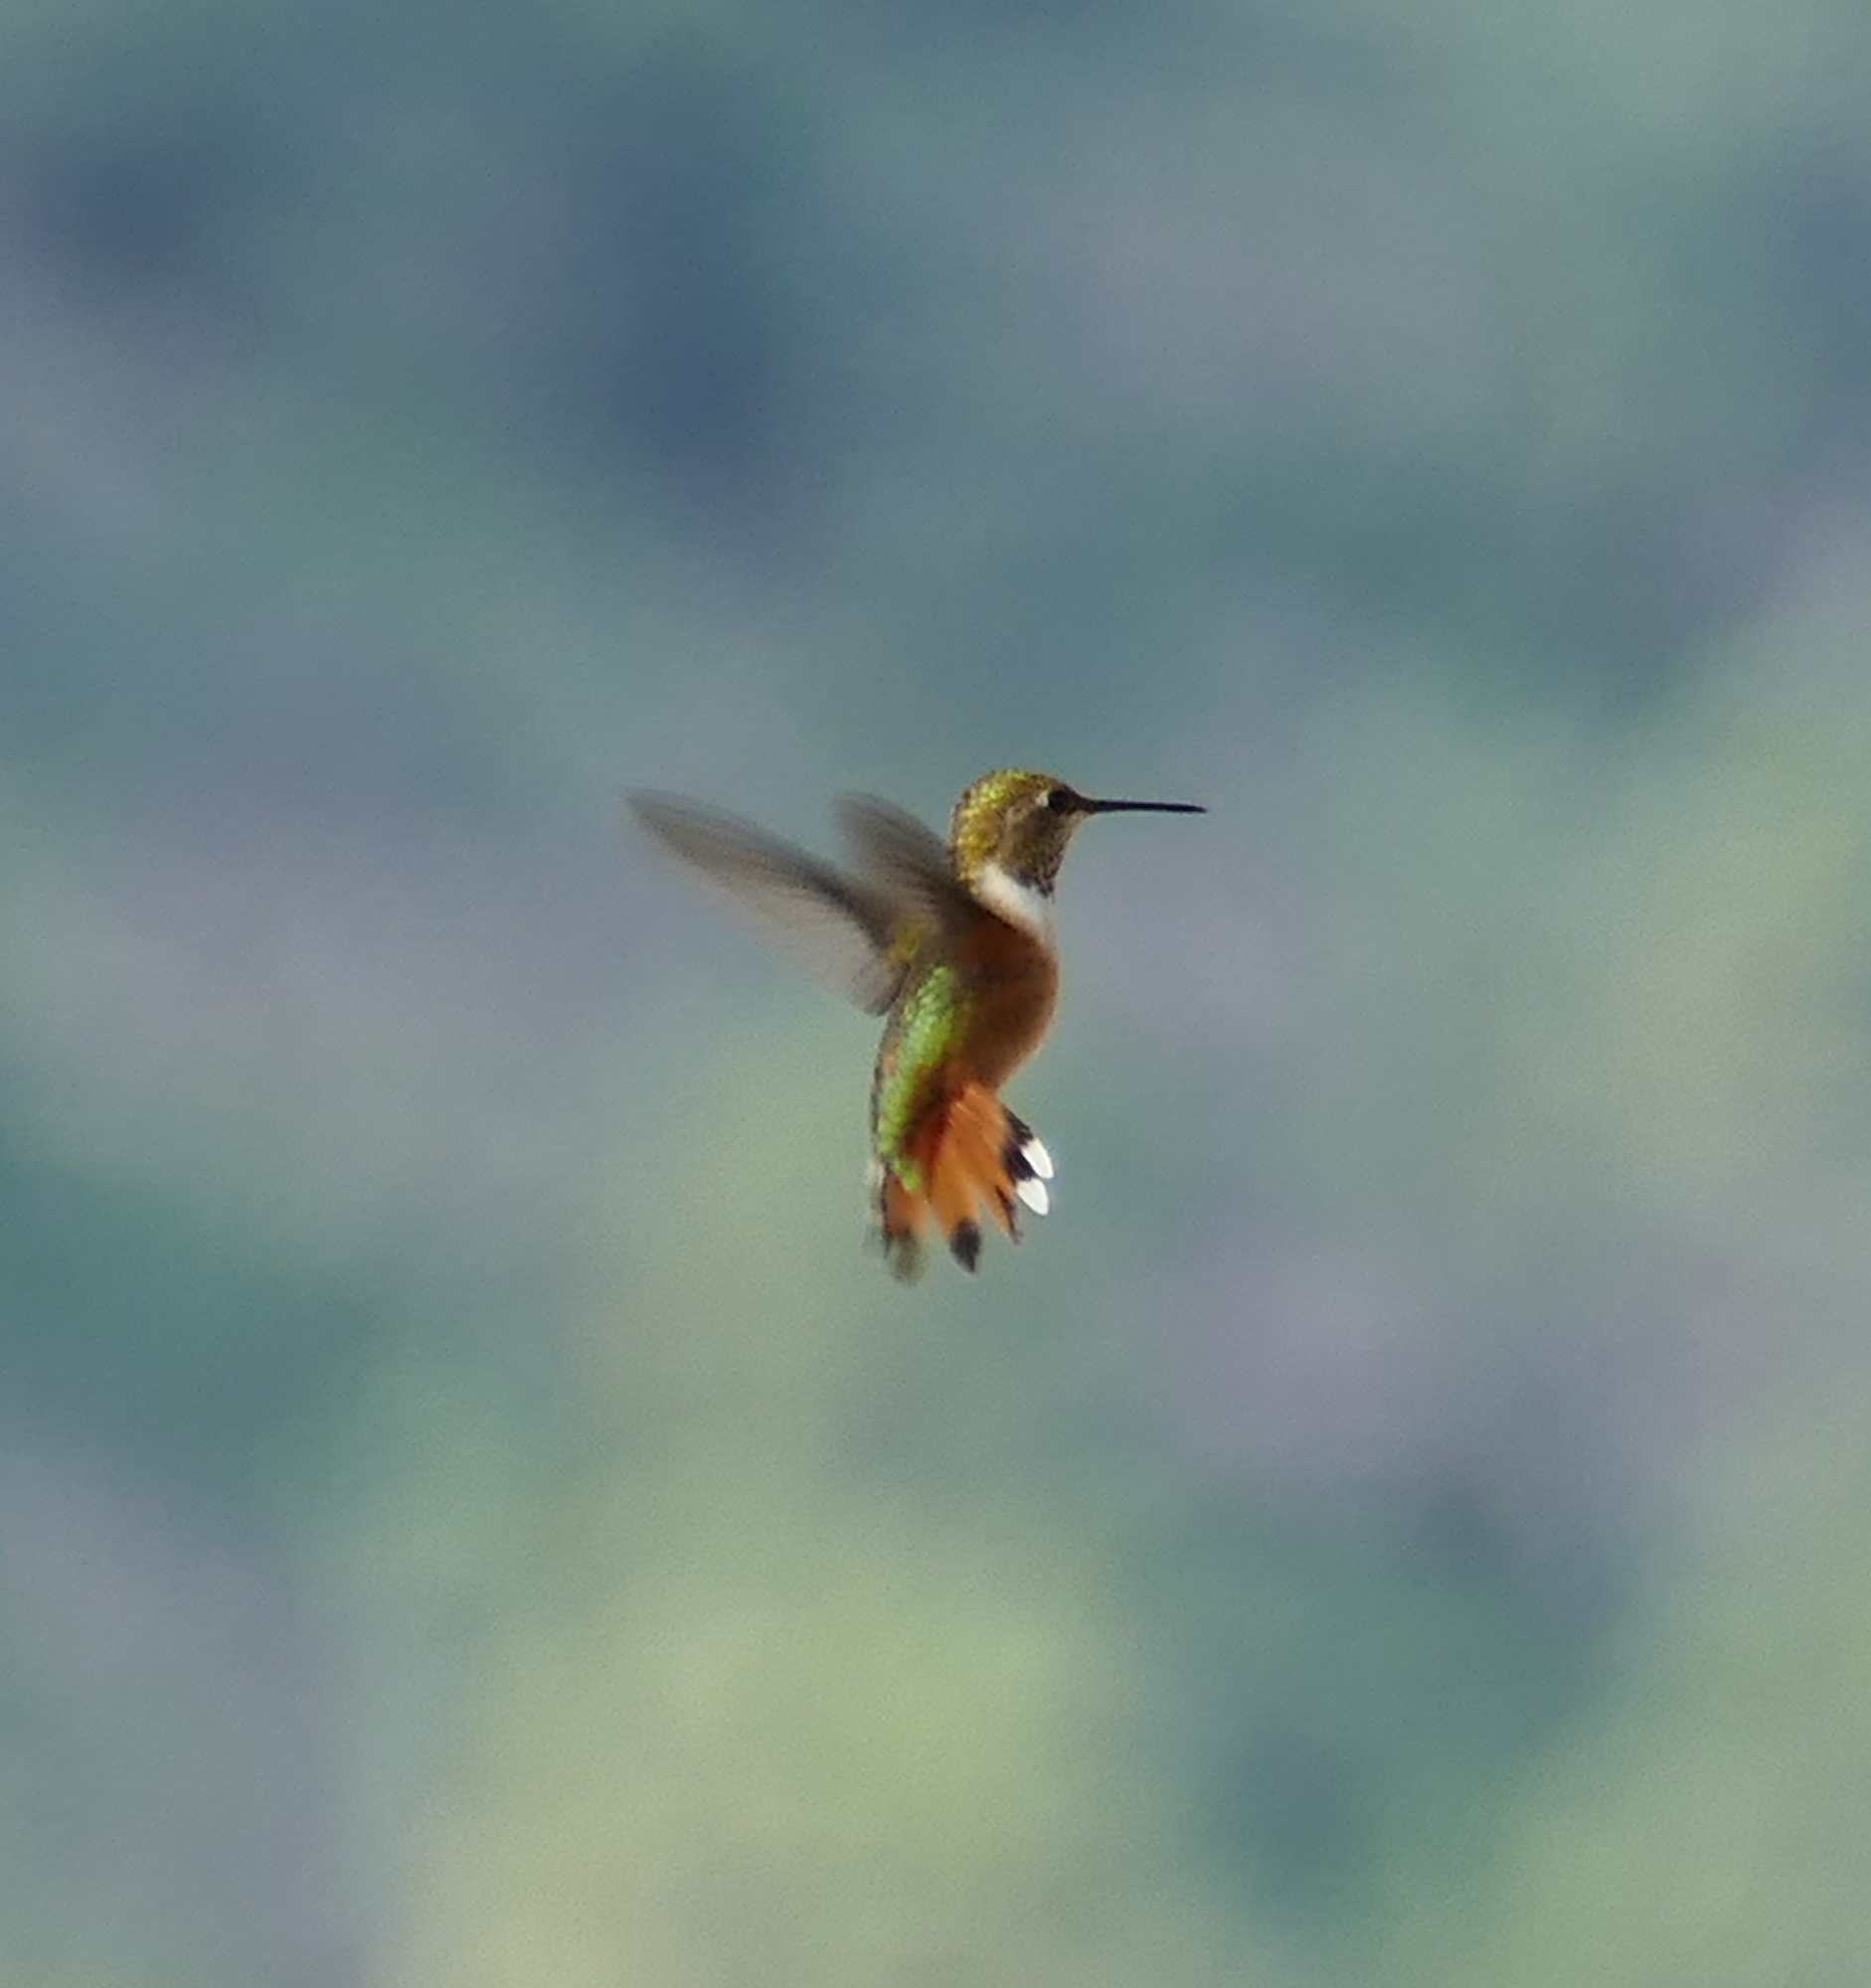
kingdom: Animalia
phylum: Chordata
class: Aves
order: Apodiformes
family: Trochilidae
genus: Selasphorus
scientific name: Selasphorus rufus
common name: Rufous hummingbird
